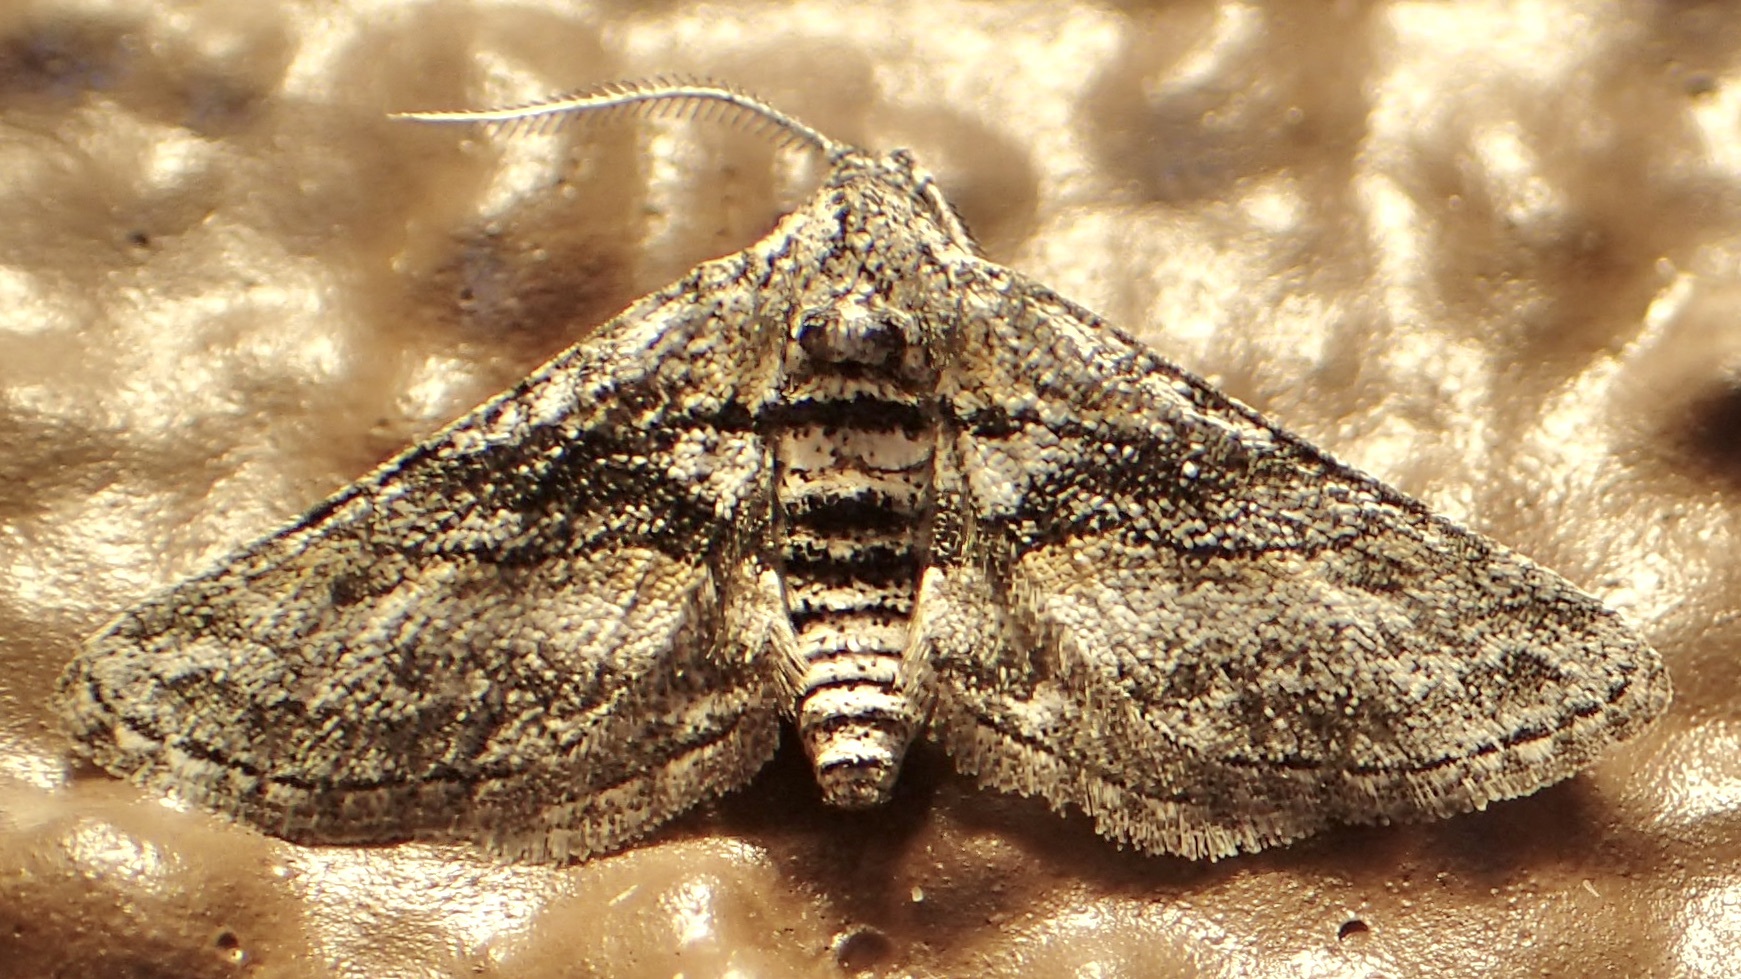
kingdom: Animalia
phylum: Arthropoda
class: Insecta
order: Lepidoptera
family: Geometridae
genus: Eubarnesia
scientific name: Eubarnesia ritaria
